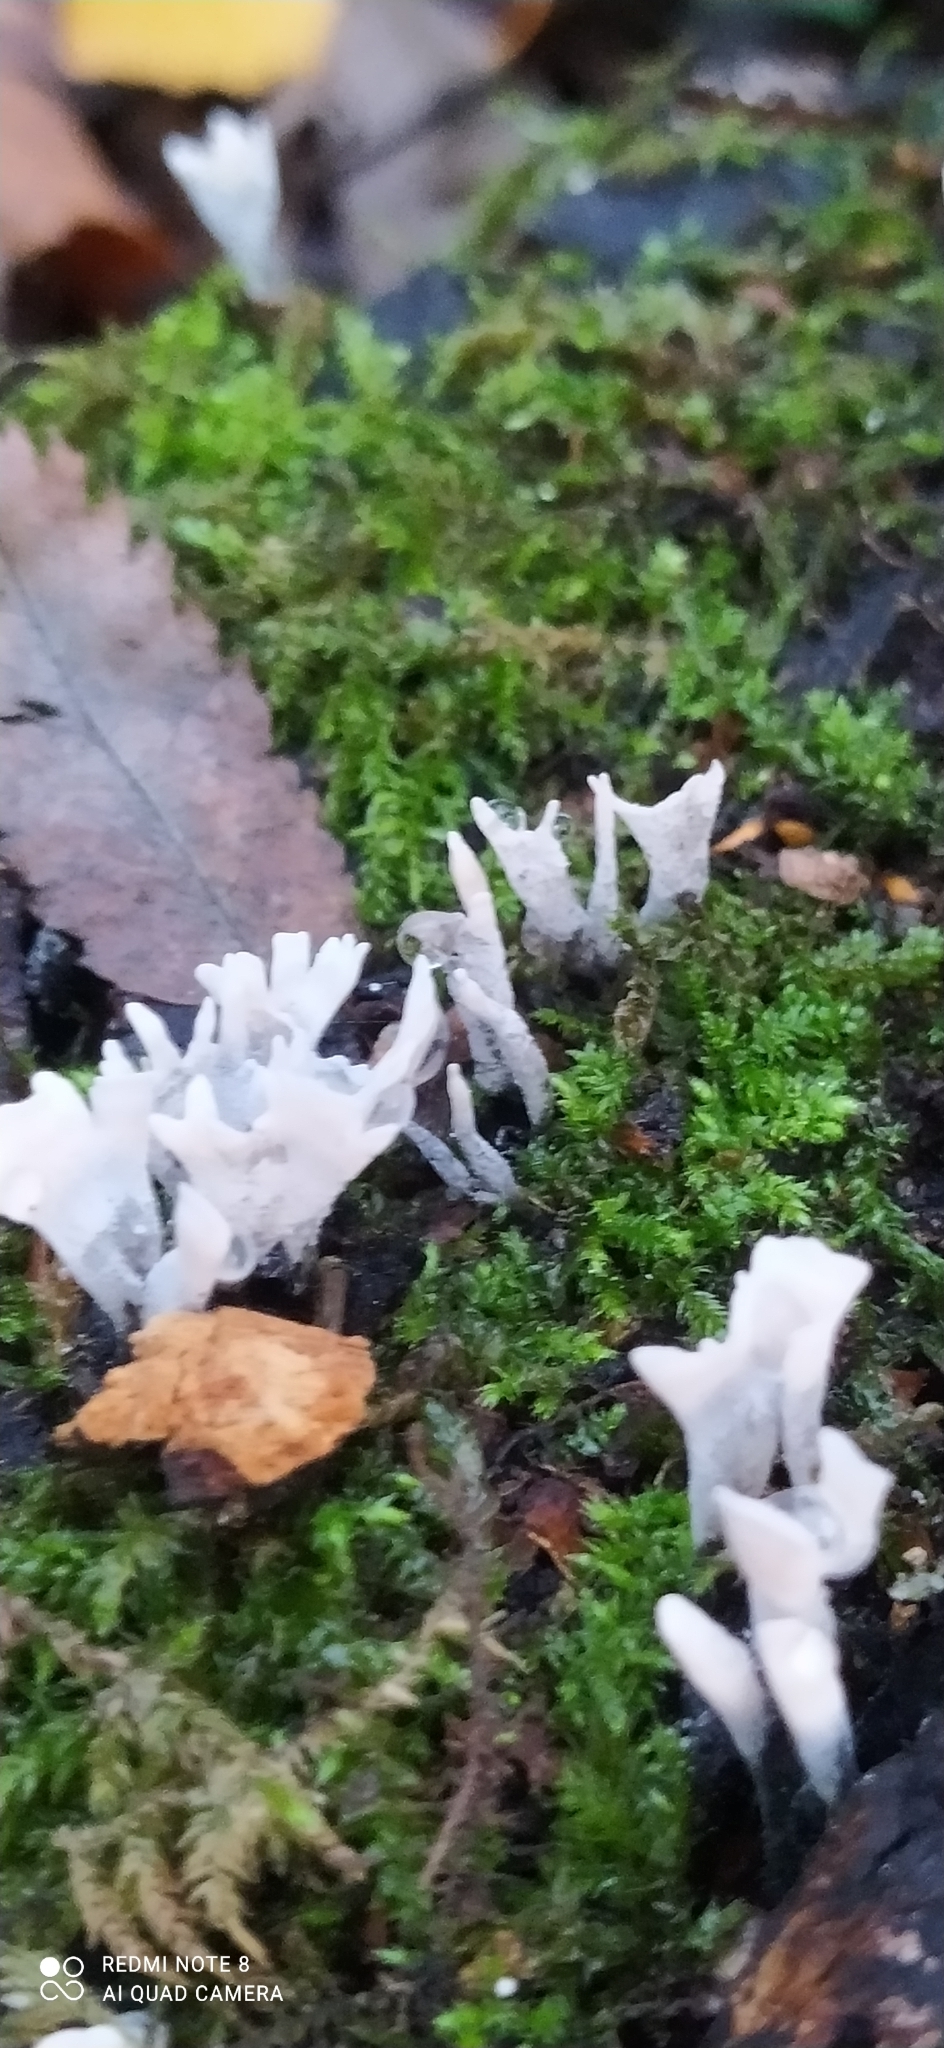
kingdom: Fungi
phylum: Ascomycota
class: Sordariomycetes
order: Xylariales
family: Xylariaceae
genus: Xylaria
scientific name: Xylaria hypoxylon
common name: Candle-snuff fungus
